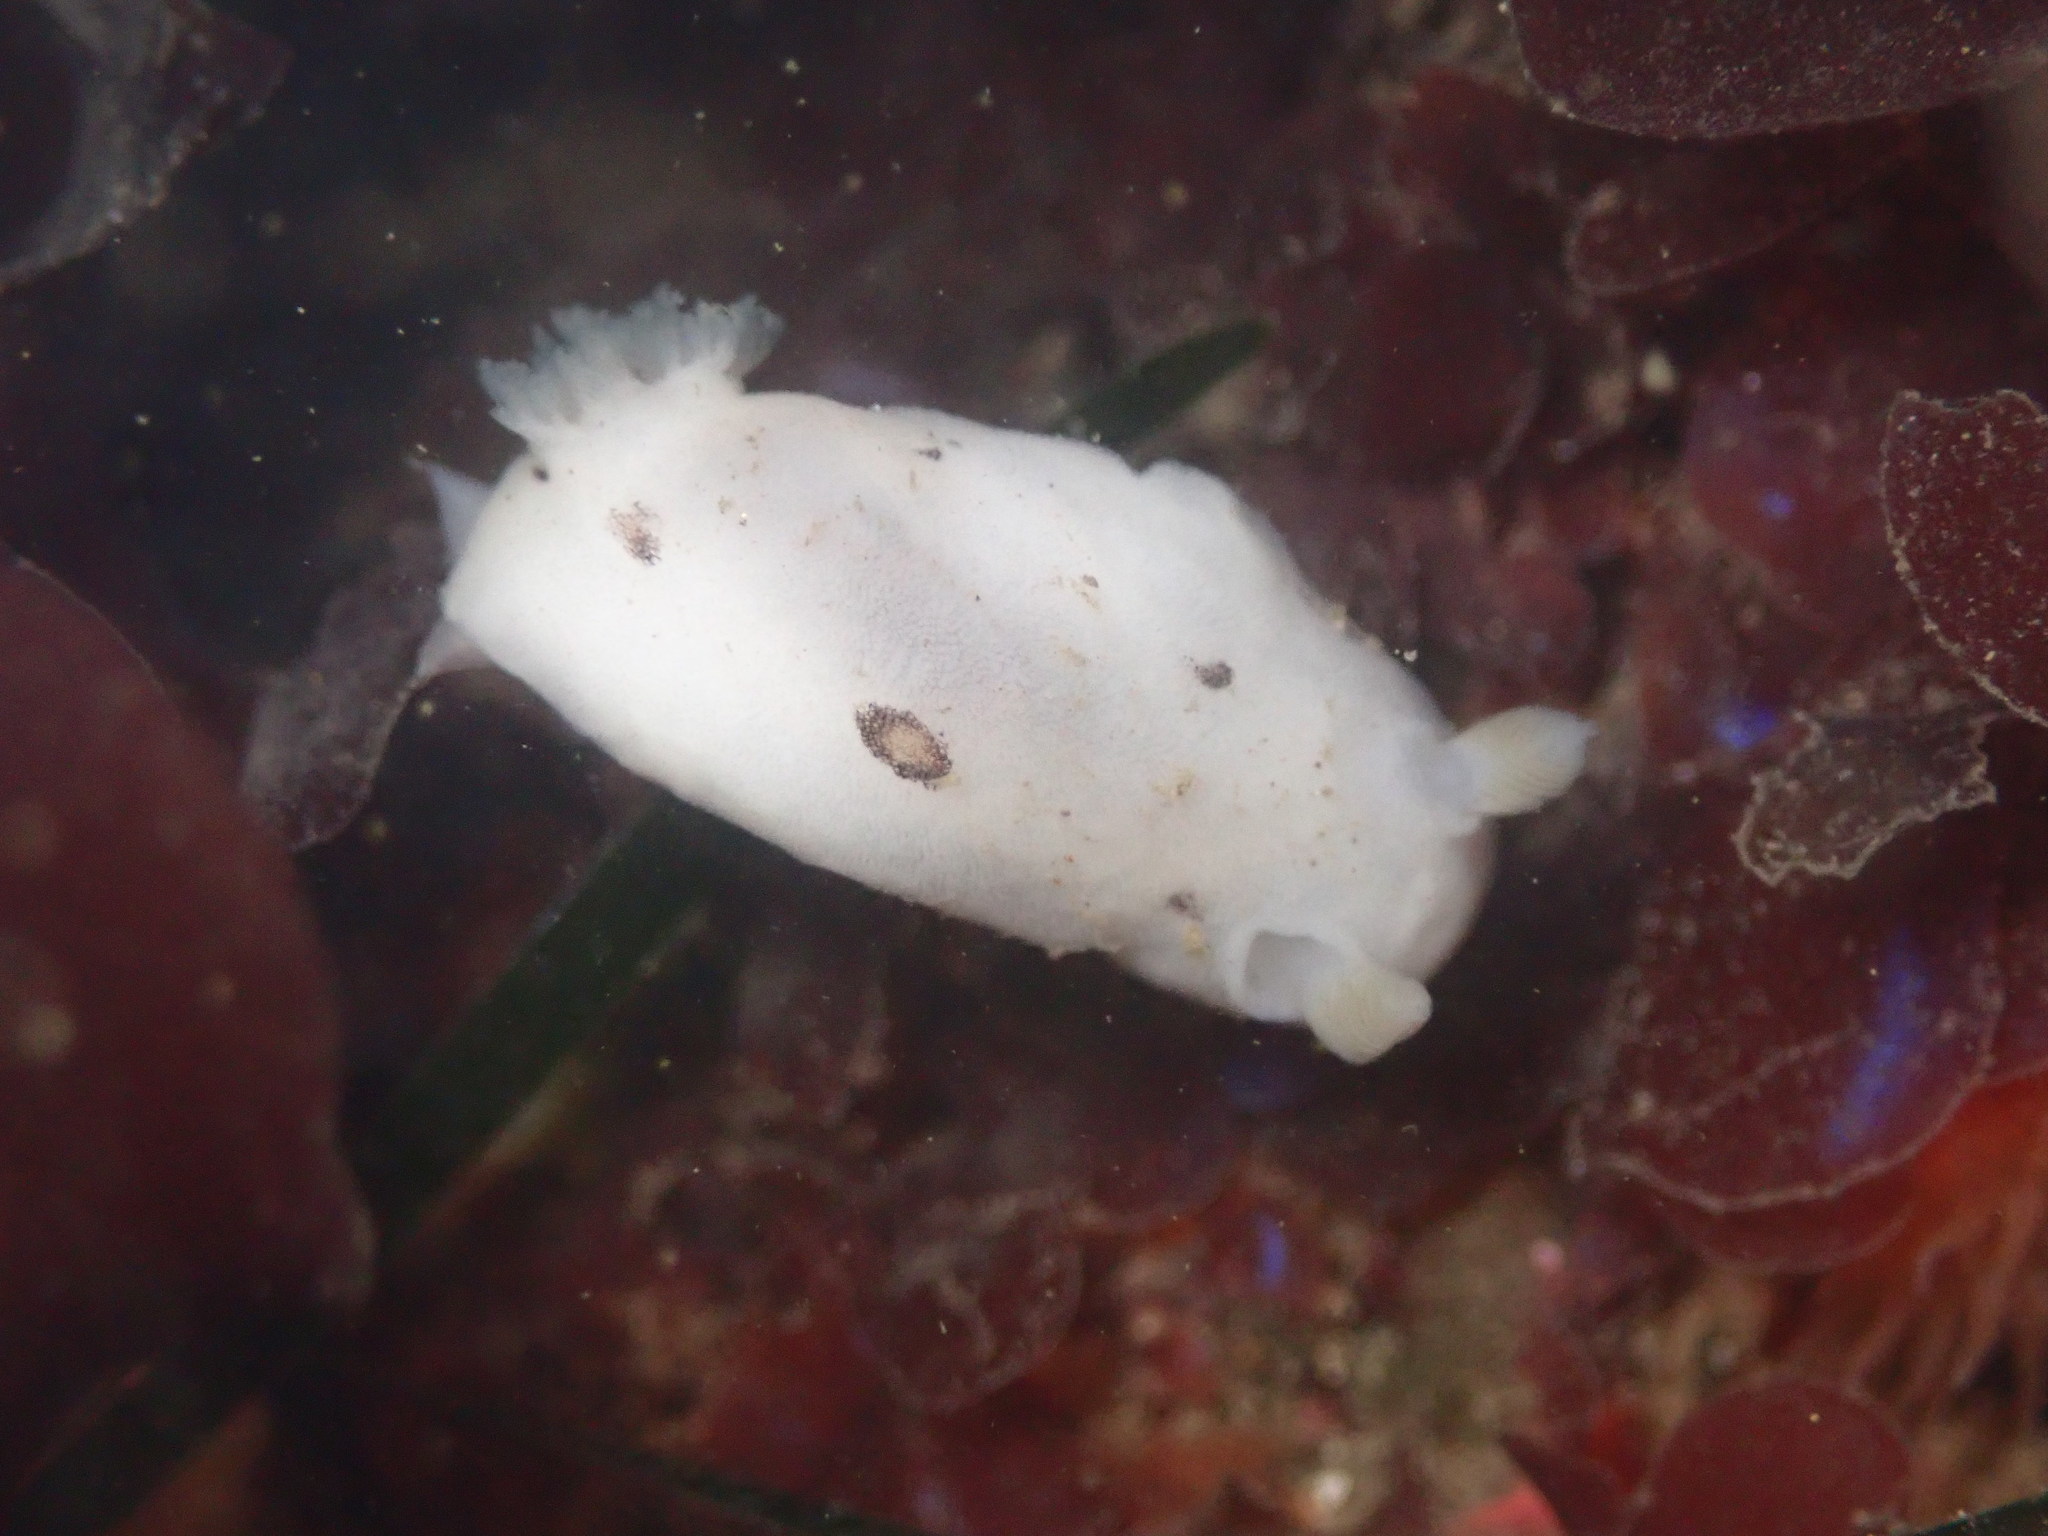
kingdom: Animalia
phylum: Mollusca
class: Gastropoda
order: Nudibranchia
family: Discodorididae
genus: Diaulula
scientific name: Diaulula sandiegensis
